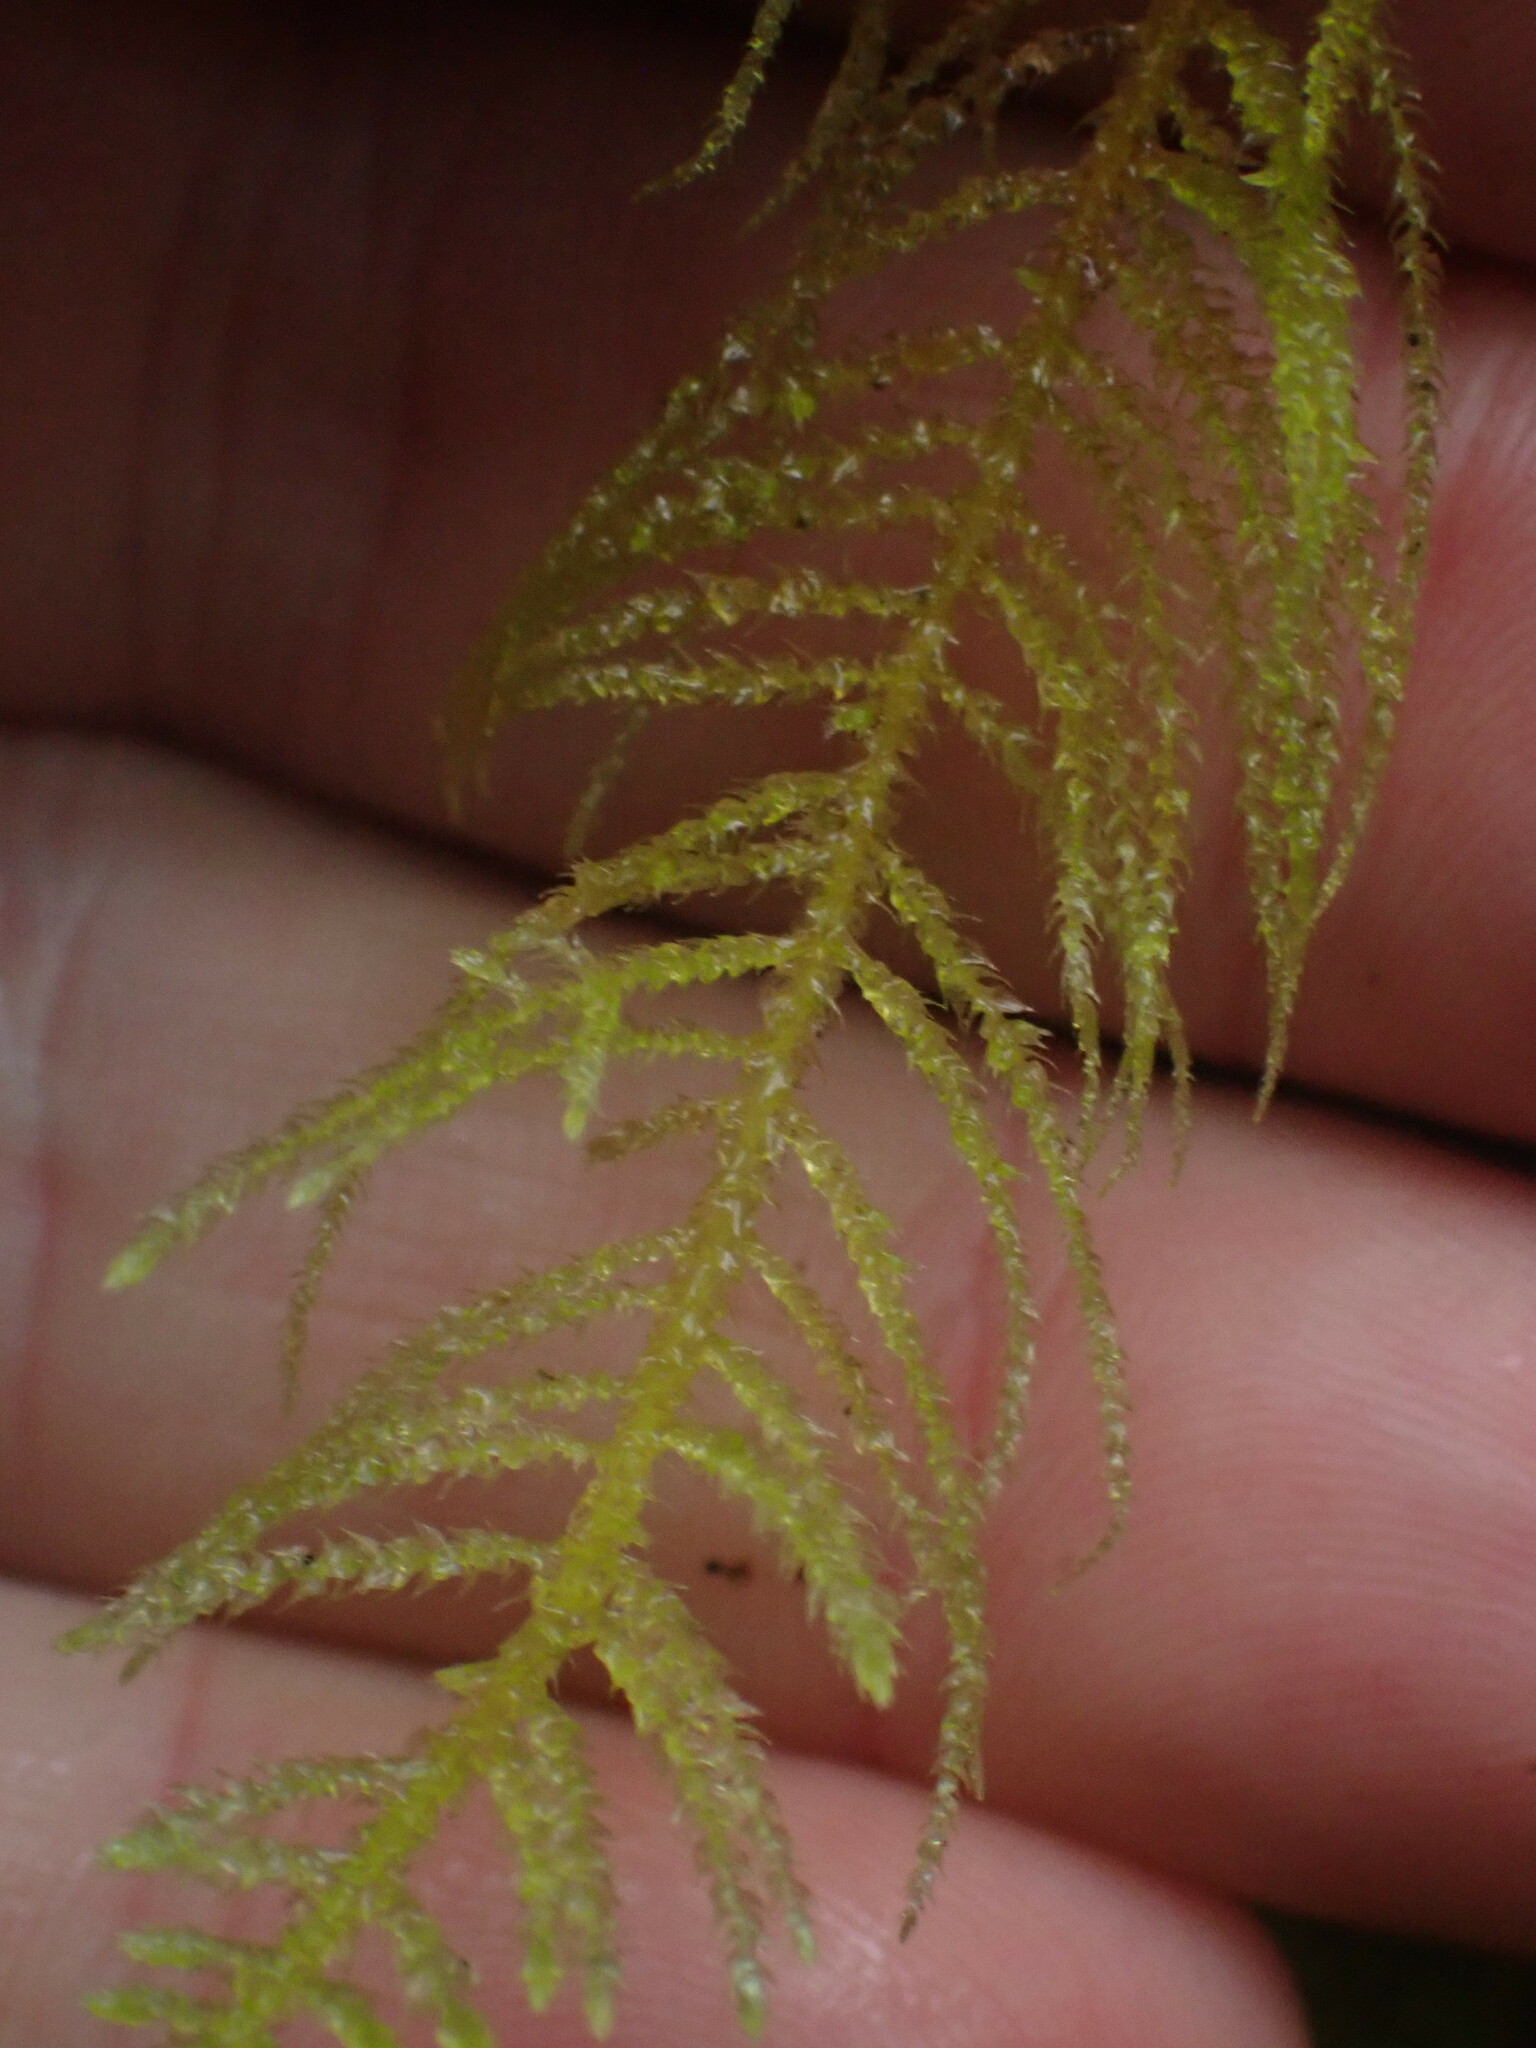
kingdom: Plantae
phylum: Bryophyta
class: Bryopsida
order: Hypnales
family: Brachytheciaceae
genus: Kindbergia
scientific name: Kindbergia oregana
